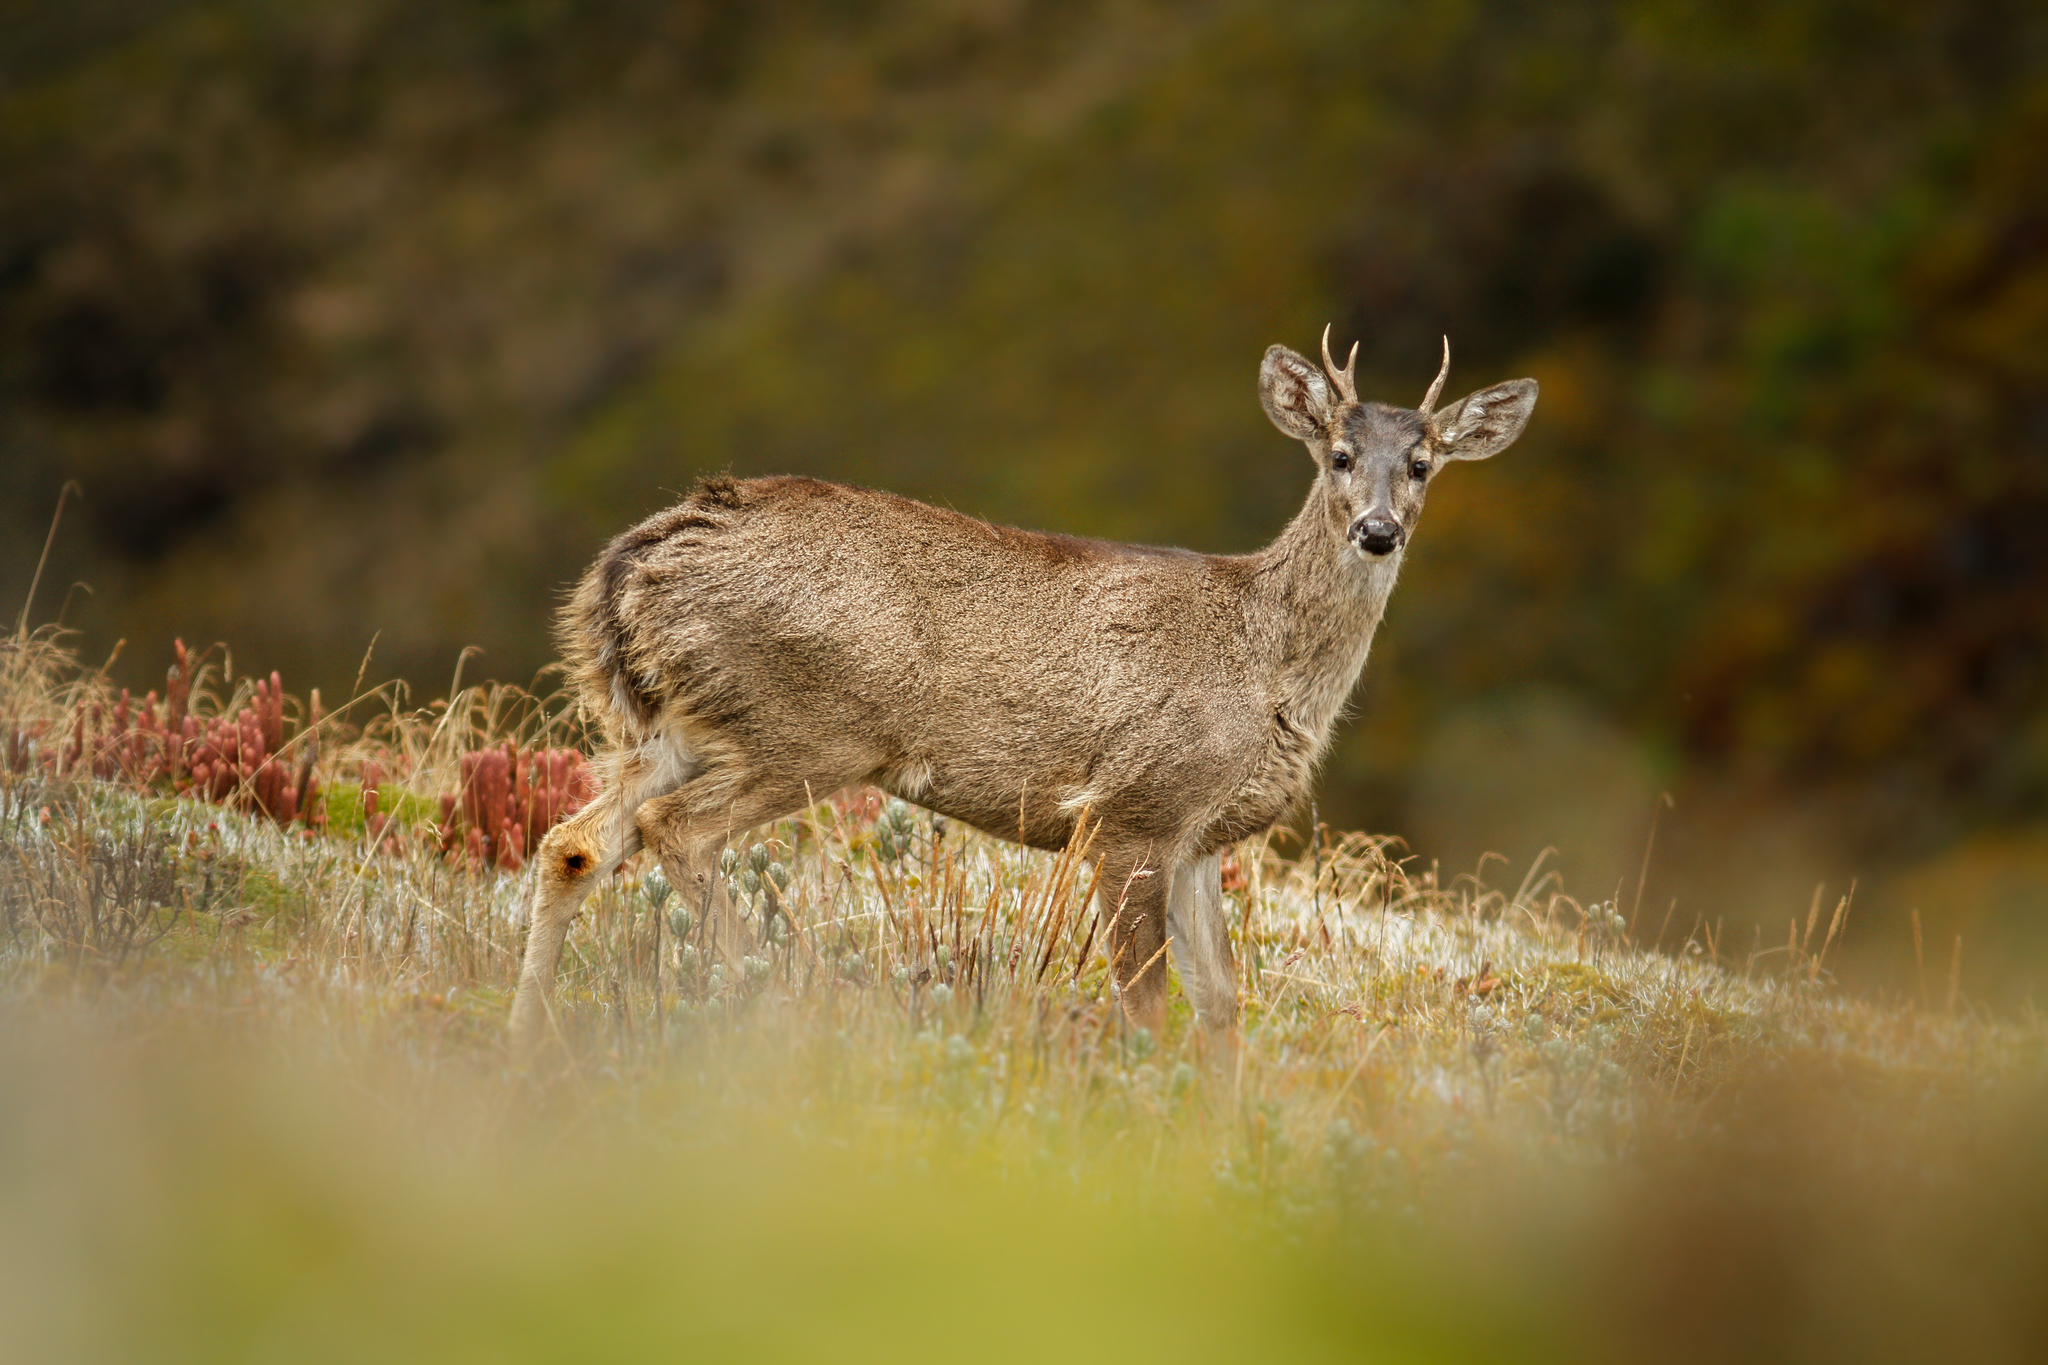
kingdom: Animalia
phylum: Chordata
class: Mammalia
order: Artiodactyla
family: Cervidae
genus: Odocoileus
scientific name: Odocoileus virginianus
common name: White-tailed deer
